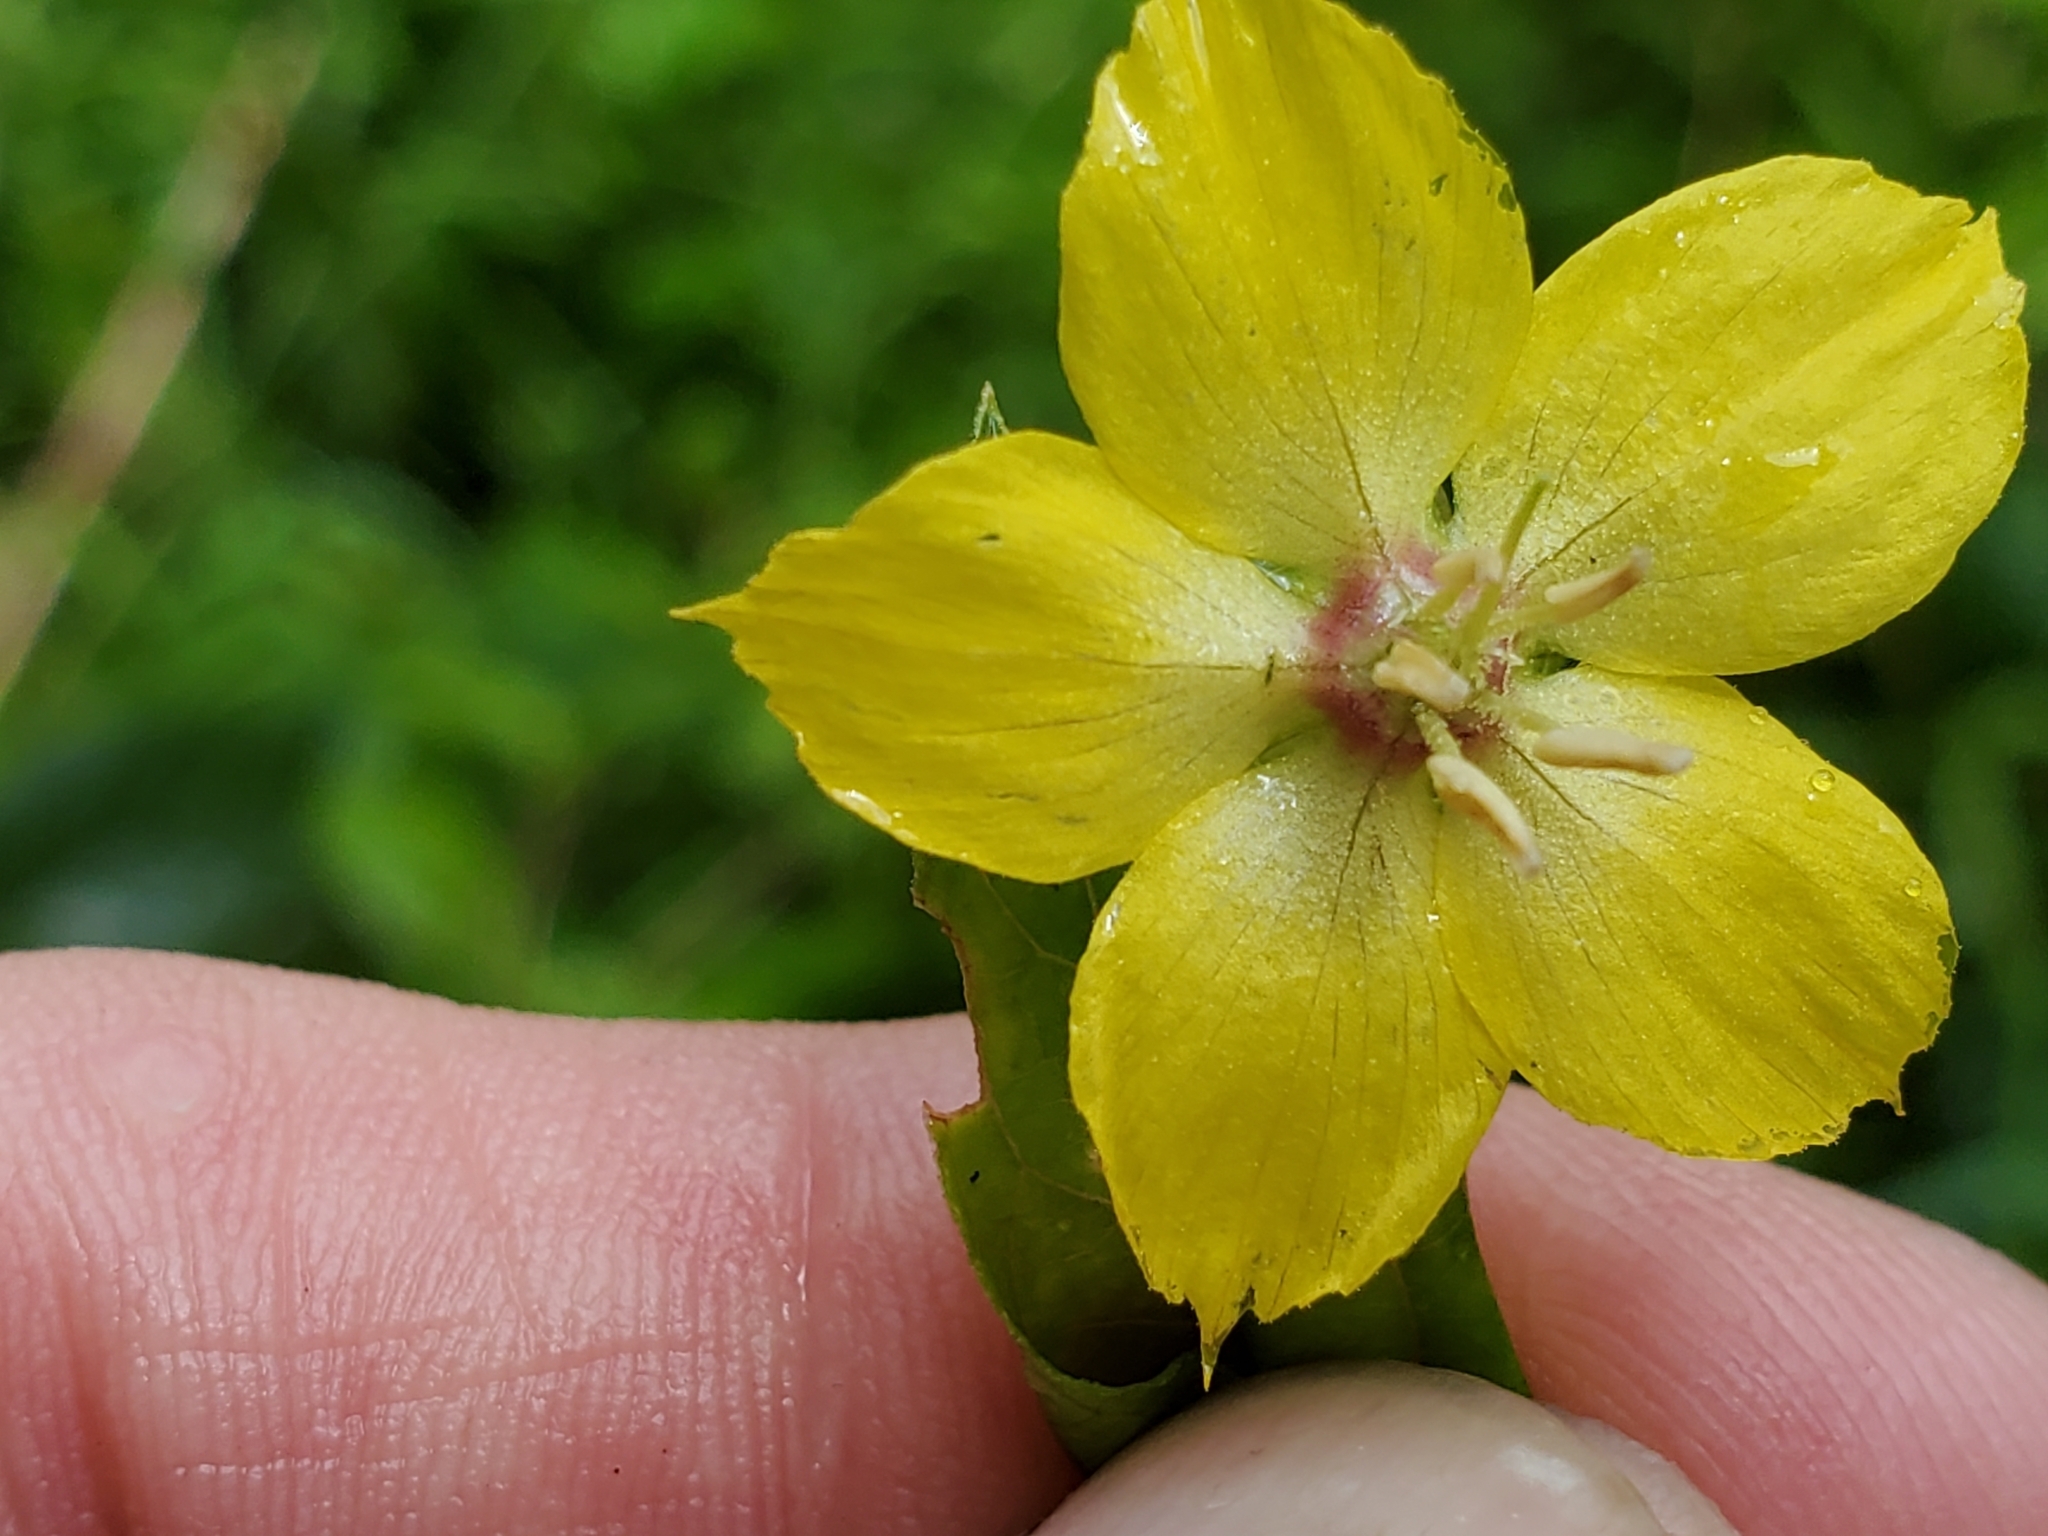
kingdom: Plantae
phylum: Tracheophyta
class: Magnoliopsida
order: Ericales
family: Primulaceae
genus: Lysimachia
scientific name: Lysimachia ciliata
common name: Fringed loosestrife
